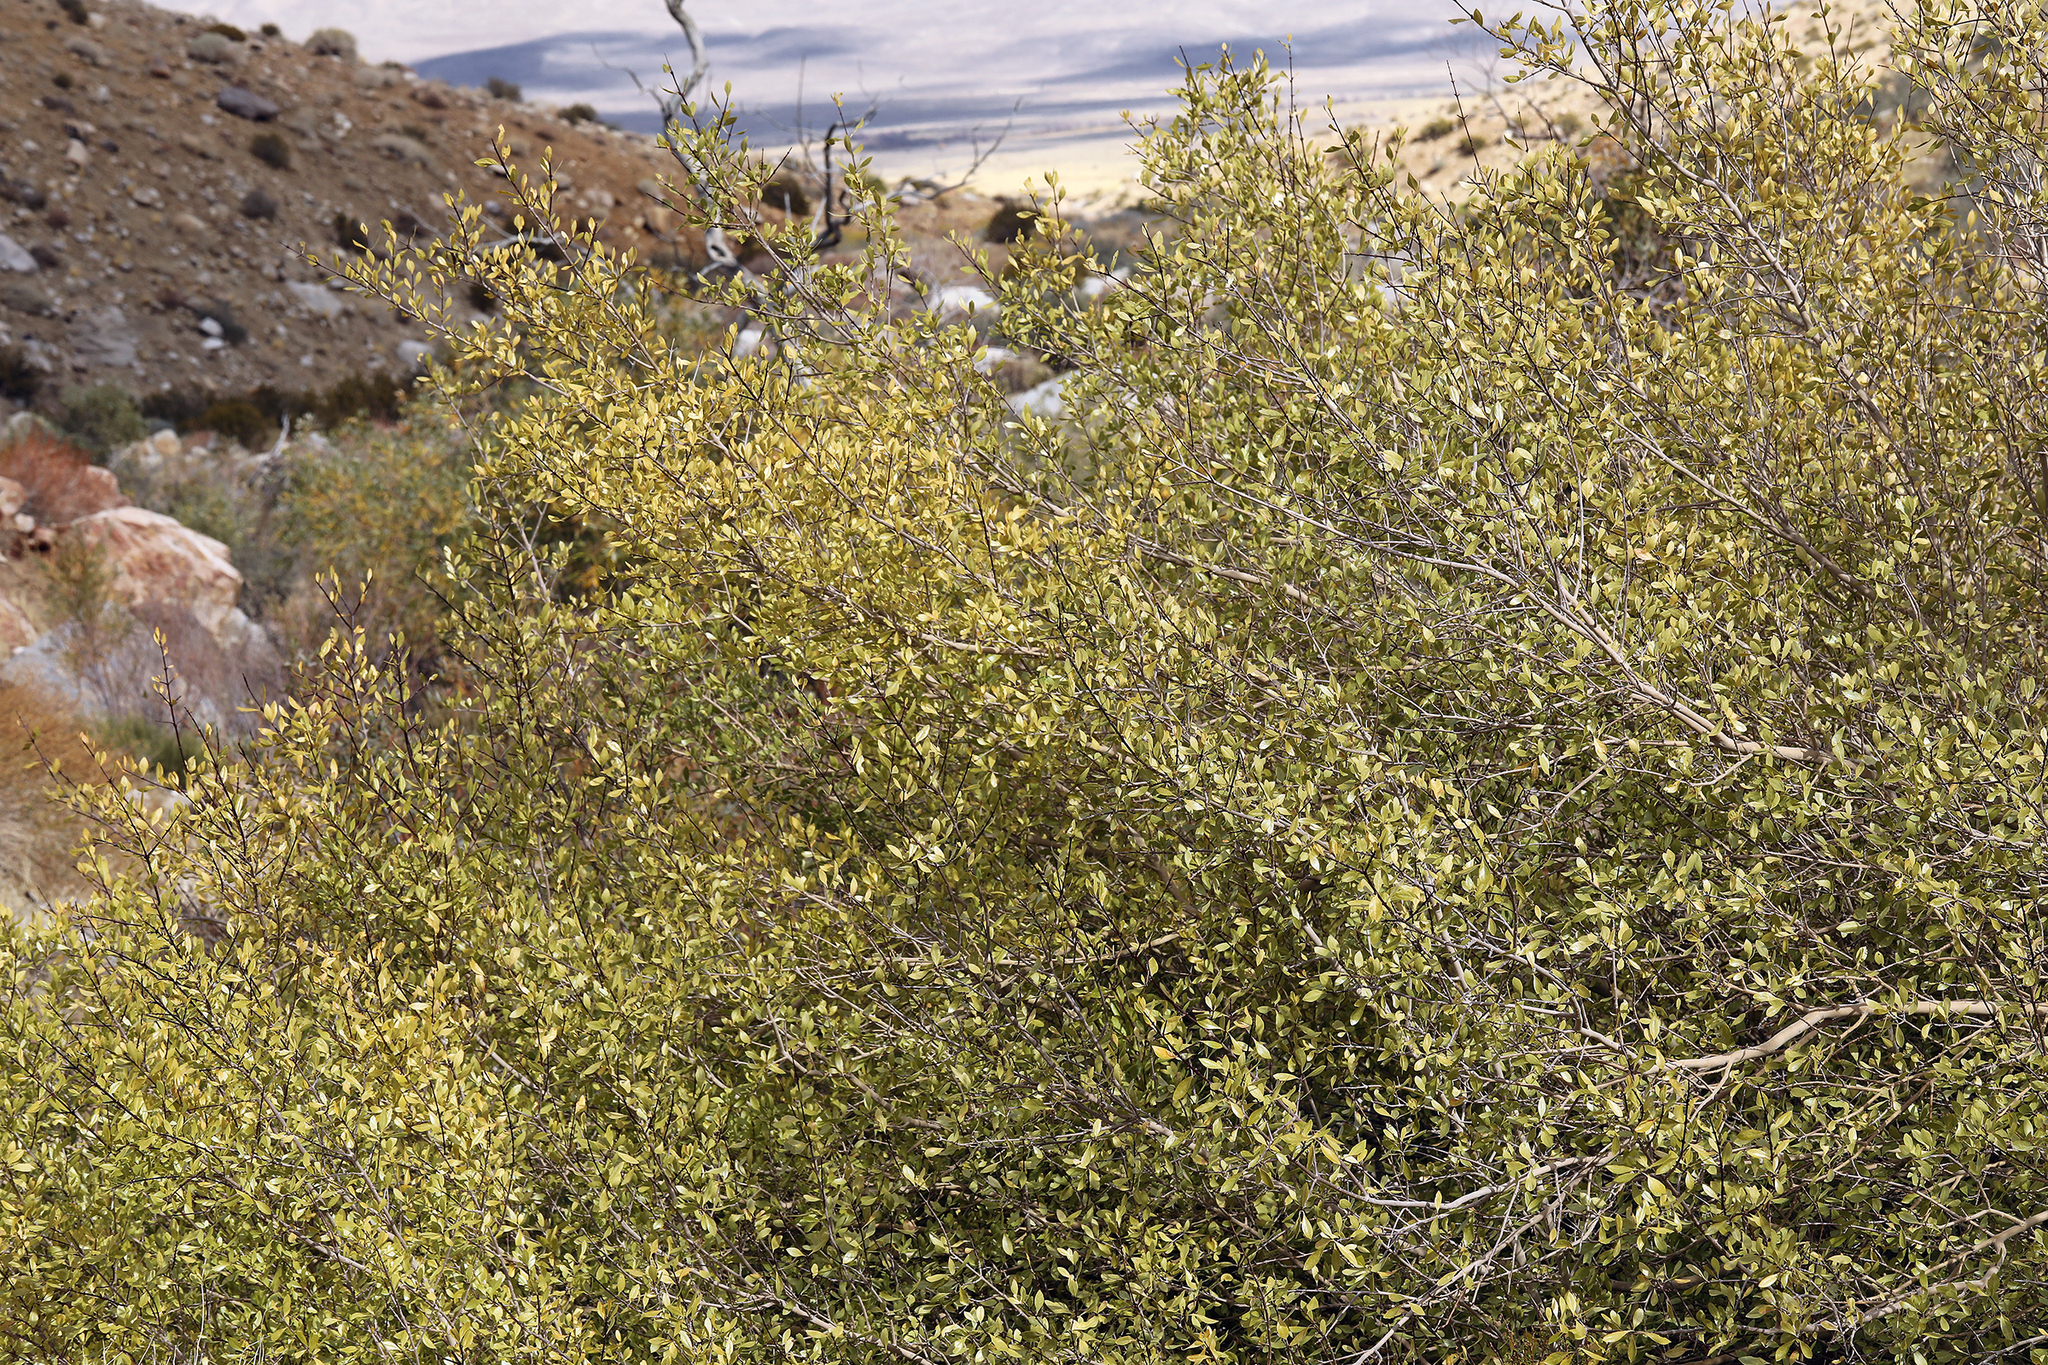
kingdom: Plantae
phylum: Tracheophyta
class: Magnoliopsida
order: Lamiales
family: Oleaceae
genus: Forestiera
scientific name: Forestiera pubescens
